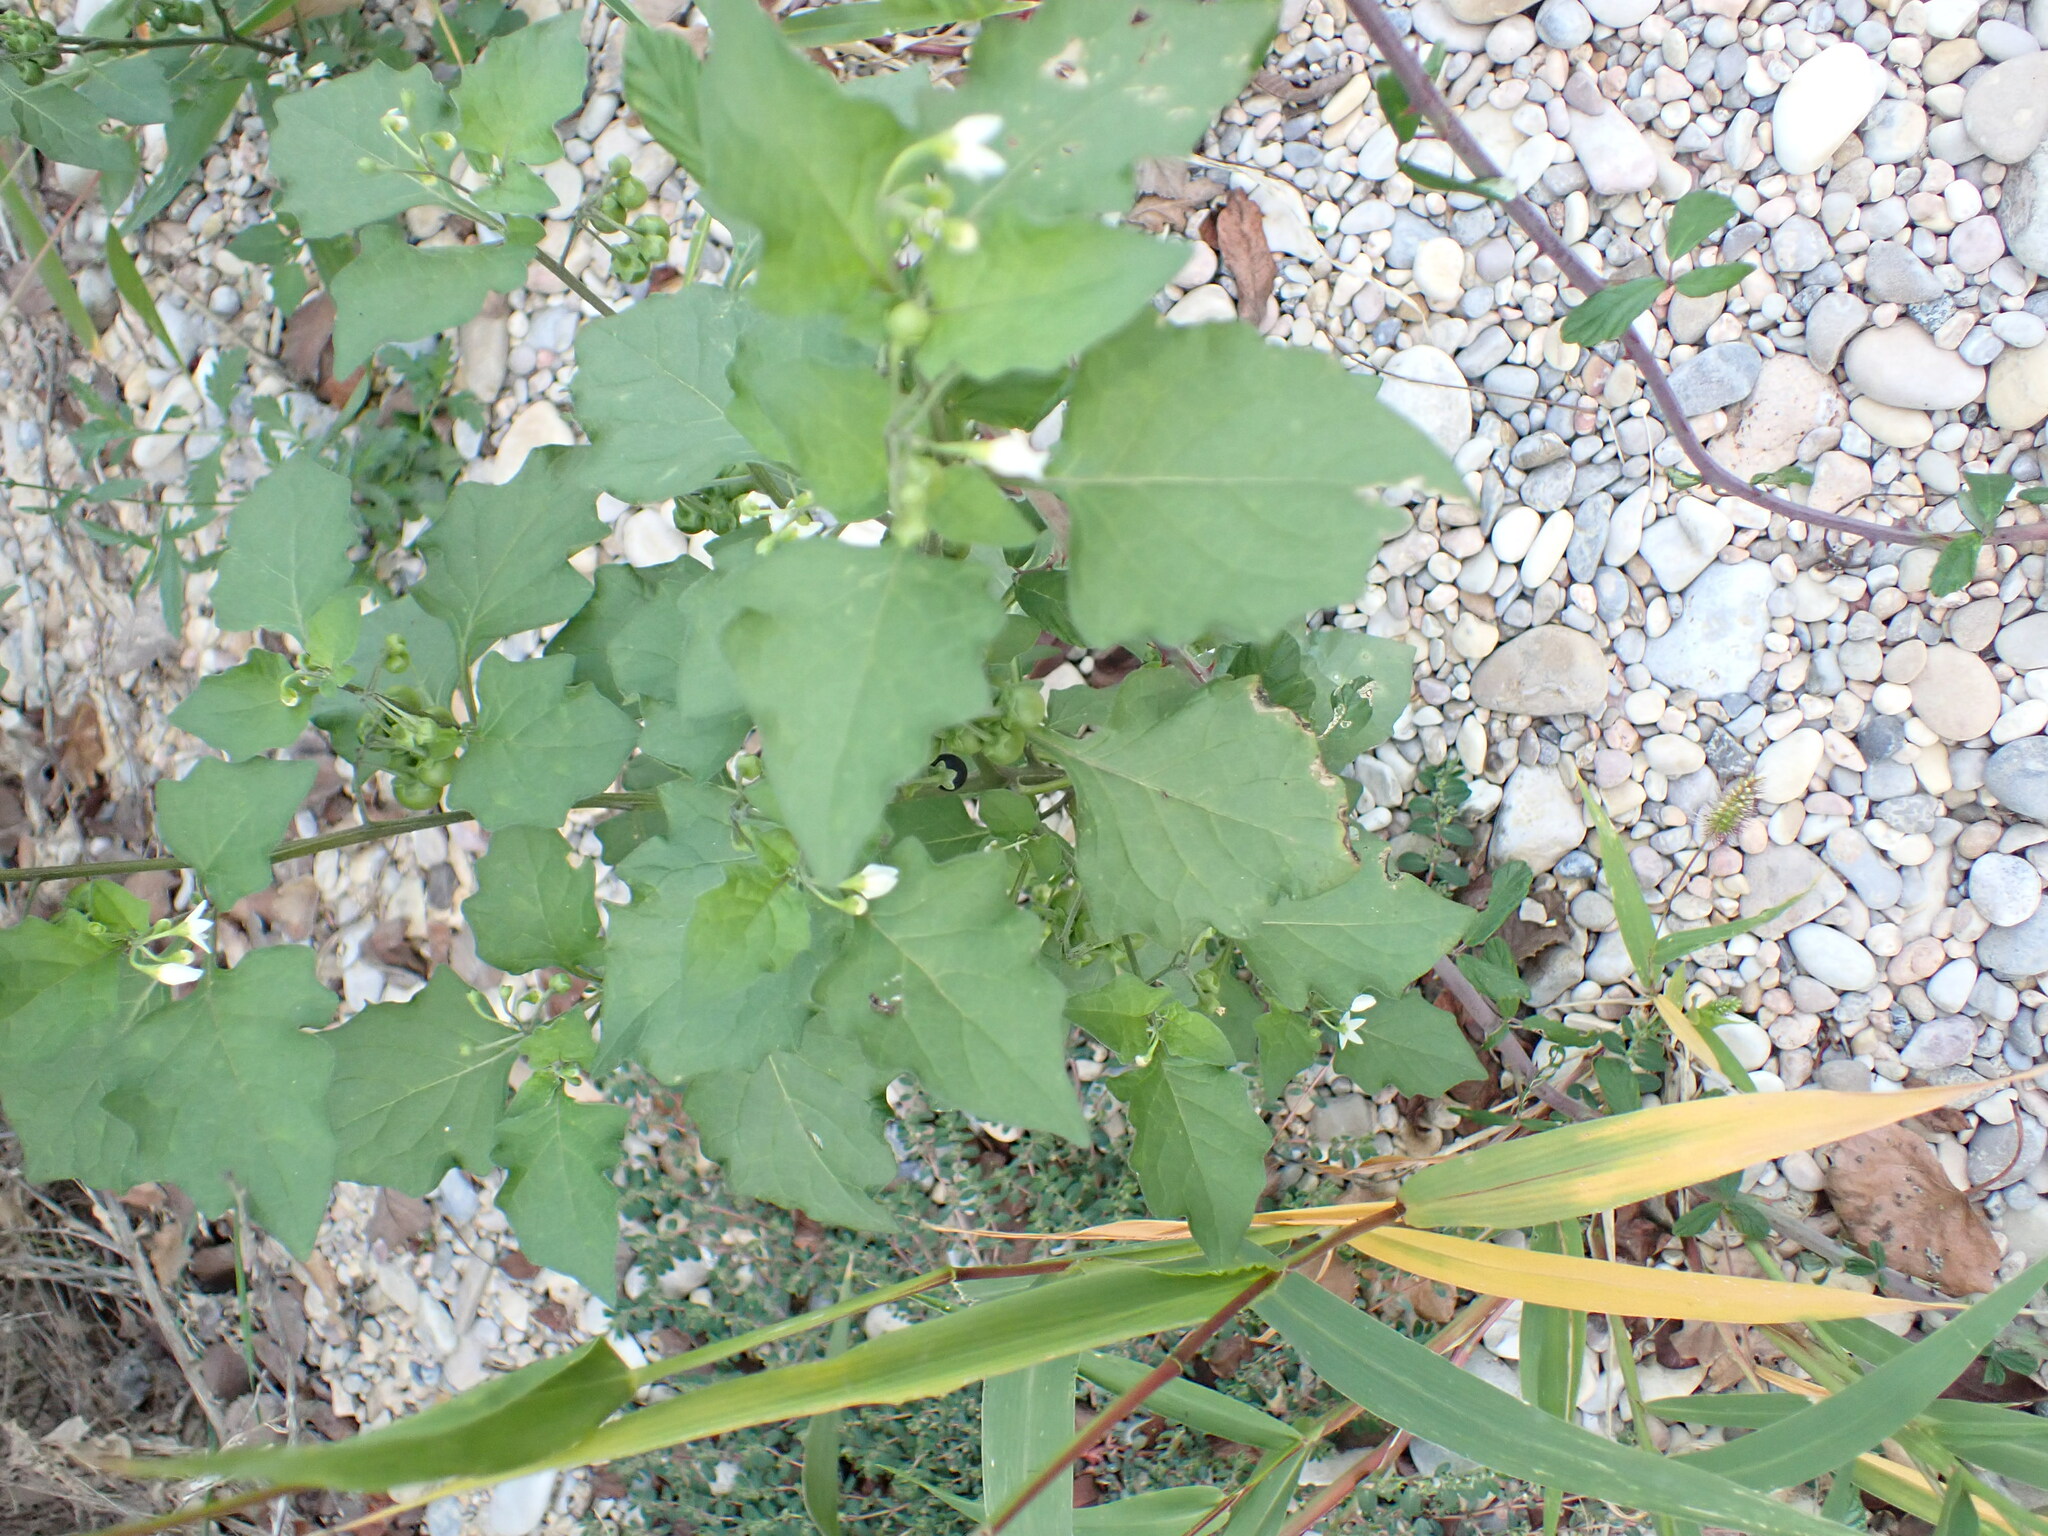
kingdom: Plantae
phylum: Tracheophyta
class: Magnoliopsida
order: Solanales
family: Solanaceae
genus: Solanum
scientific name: Solanum nigrum
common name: Black nightshade
